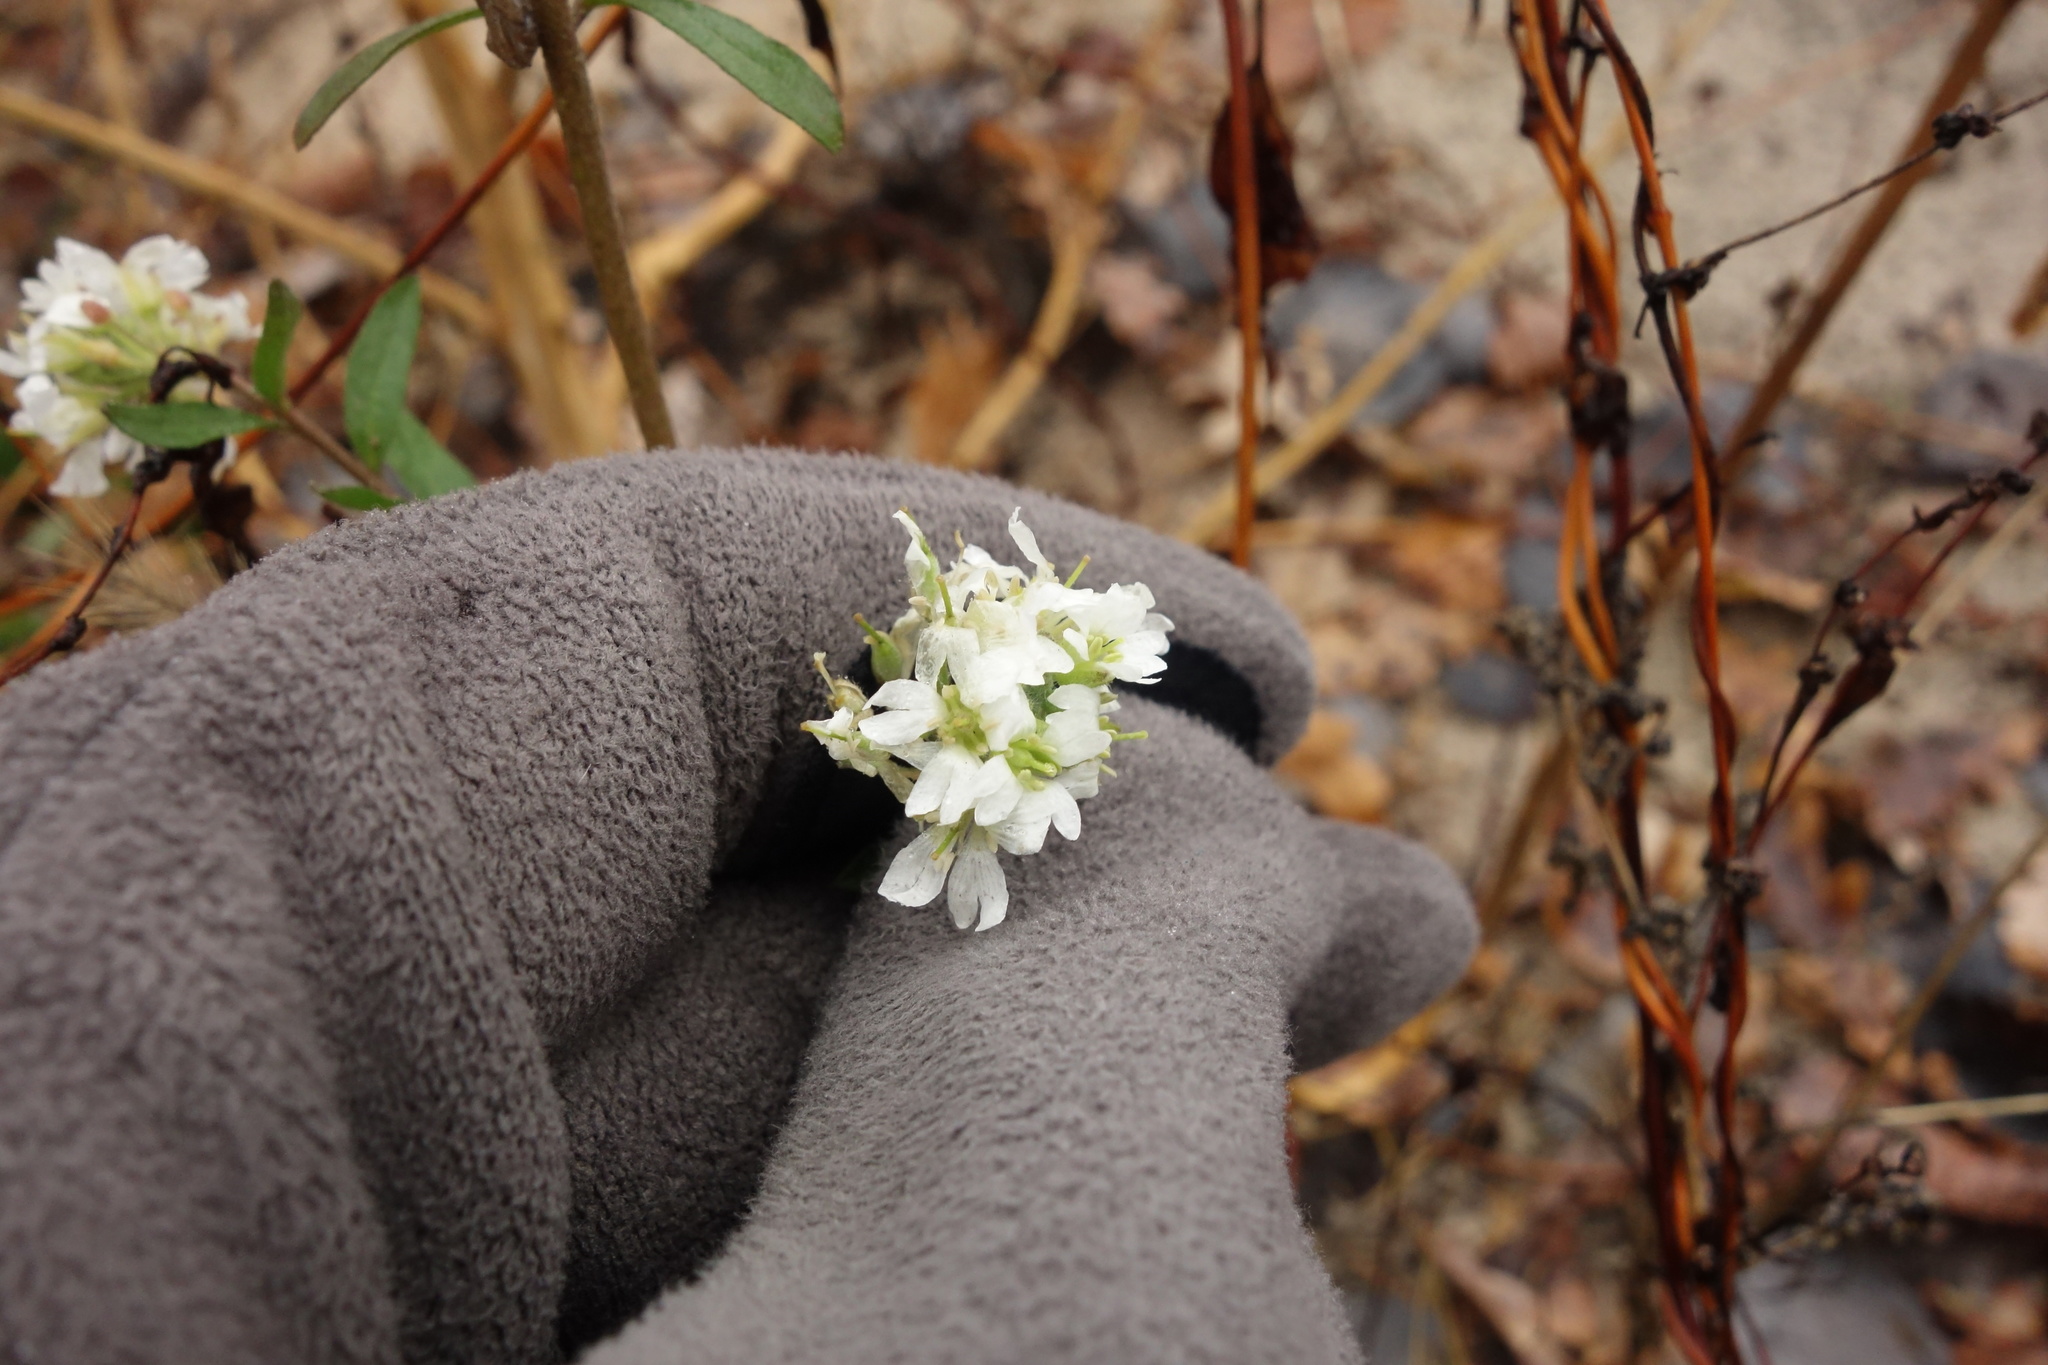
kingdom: Plantae
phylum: Tracheophyta
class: Magnoliopsida
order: Brassicales
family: Brassicaceae
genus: Berteroa
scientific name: Berteroa incana
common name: Hoary alison
